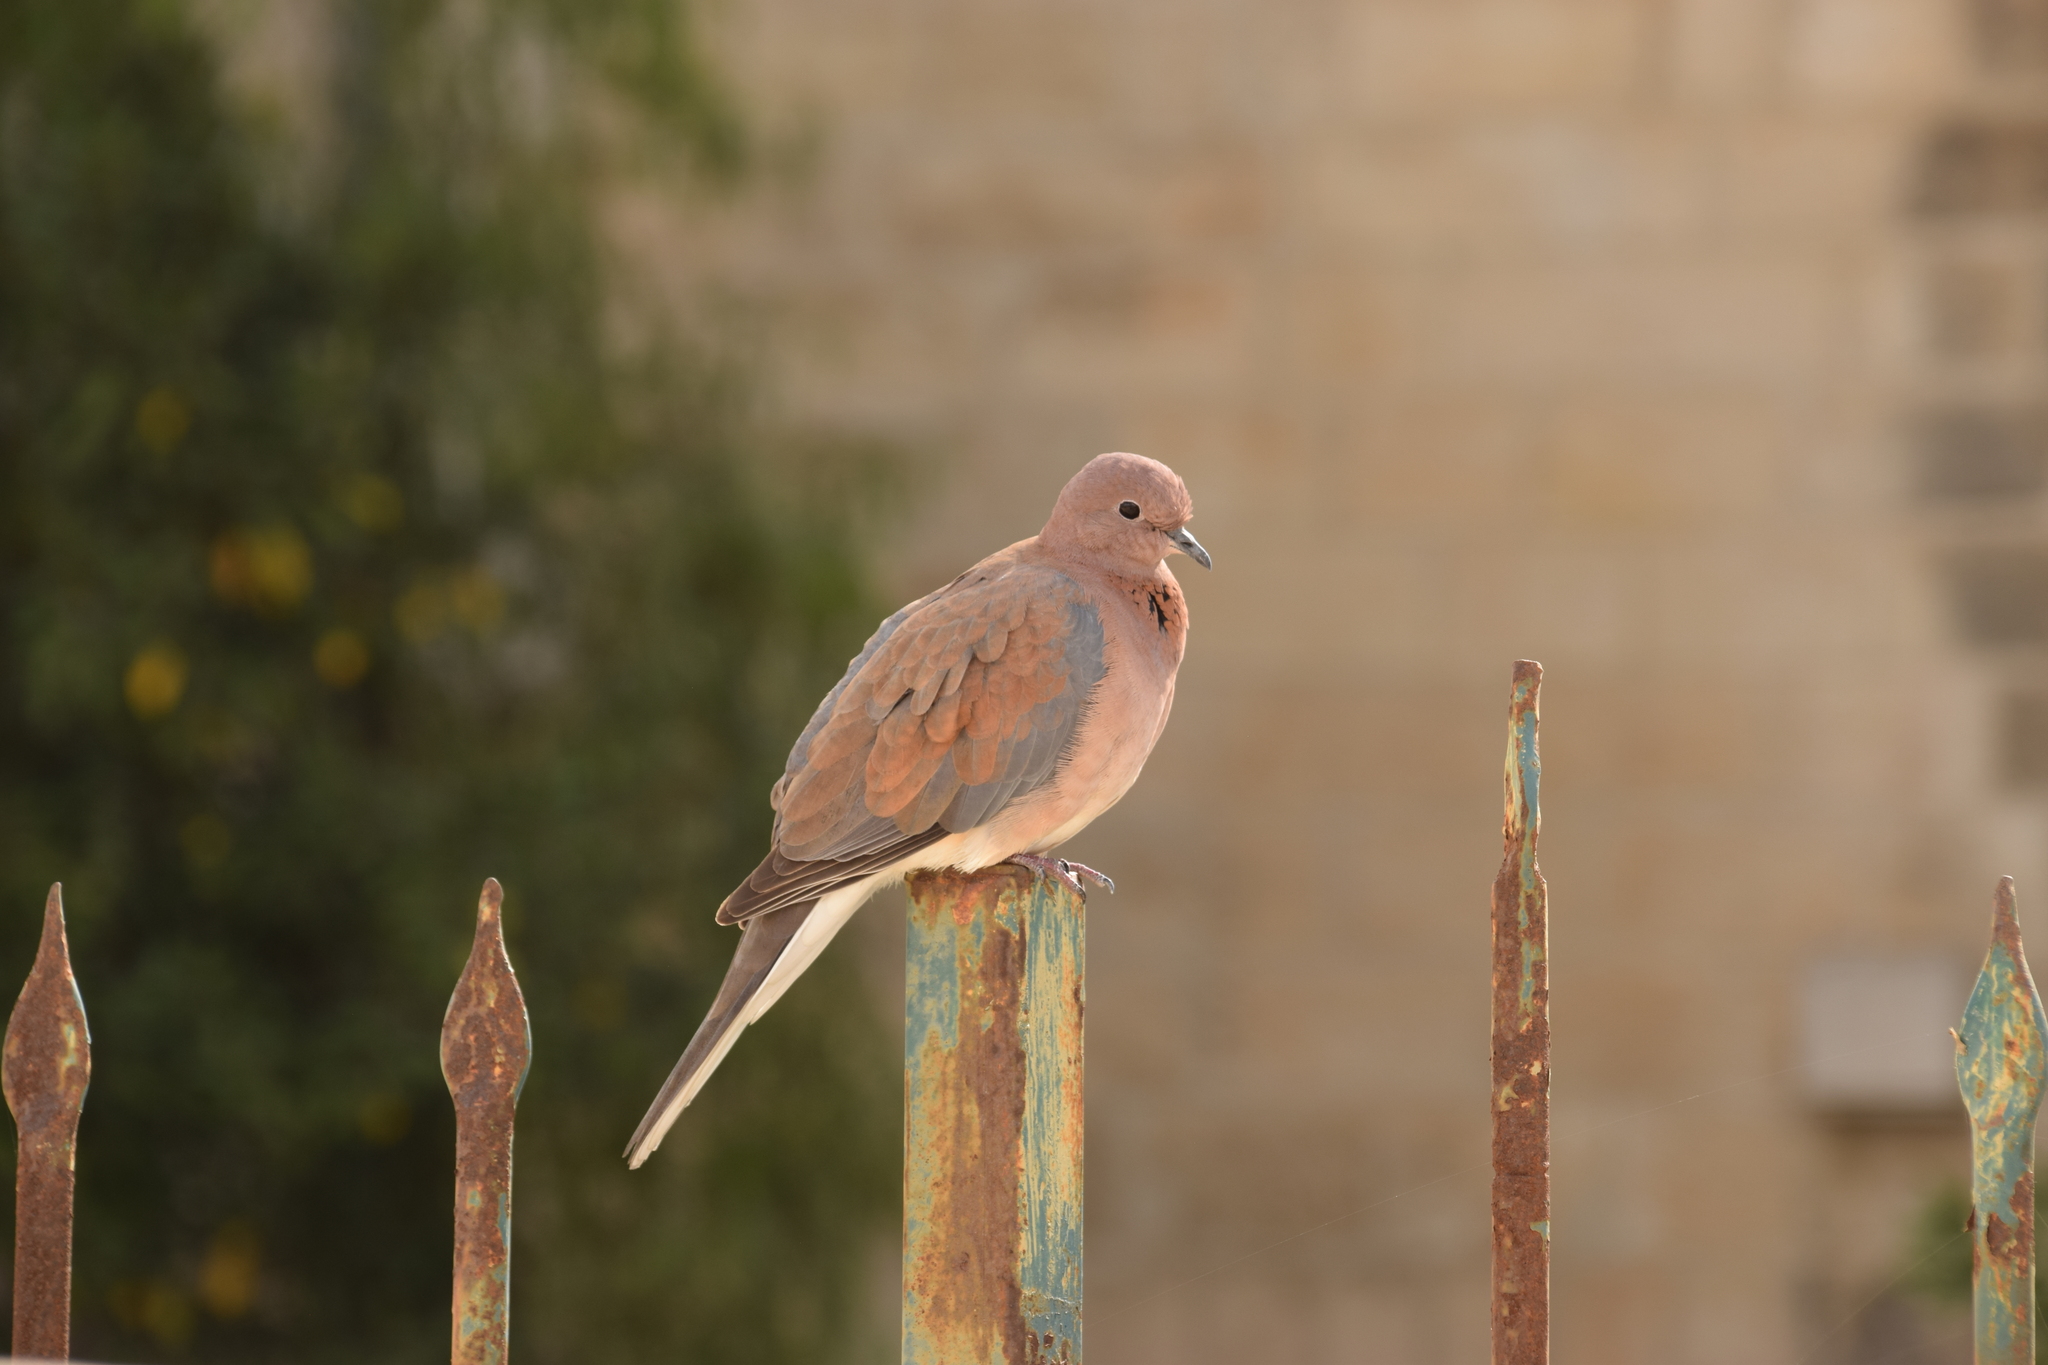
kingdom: Animalia
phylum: Chordata
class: Aves
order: Columbiformes
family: Columbidae
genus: Spilopelia
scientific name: Spilopelia senegalensis
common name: Laughing dove
